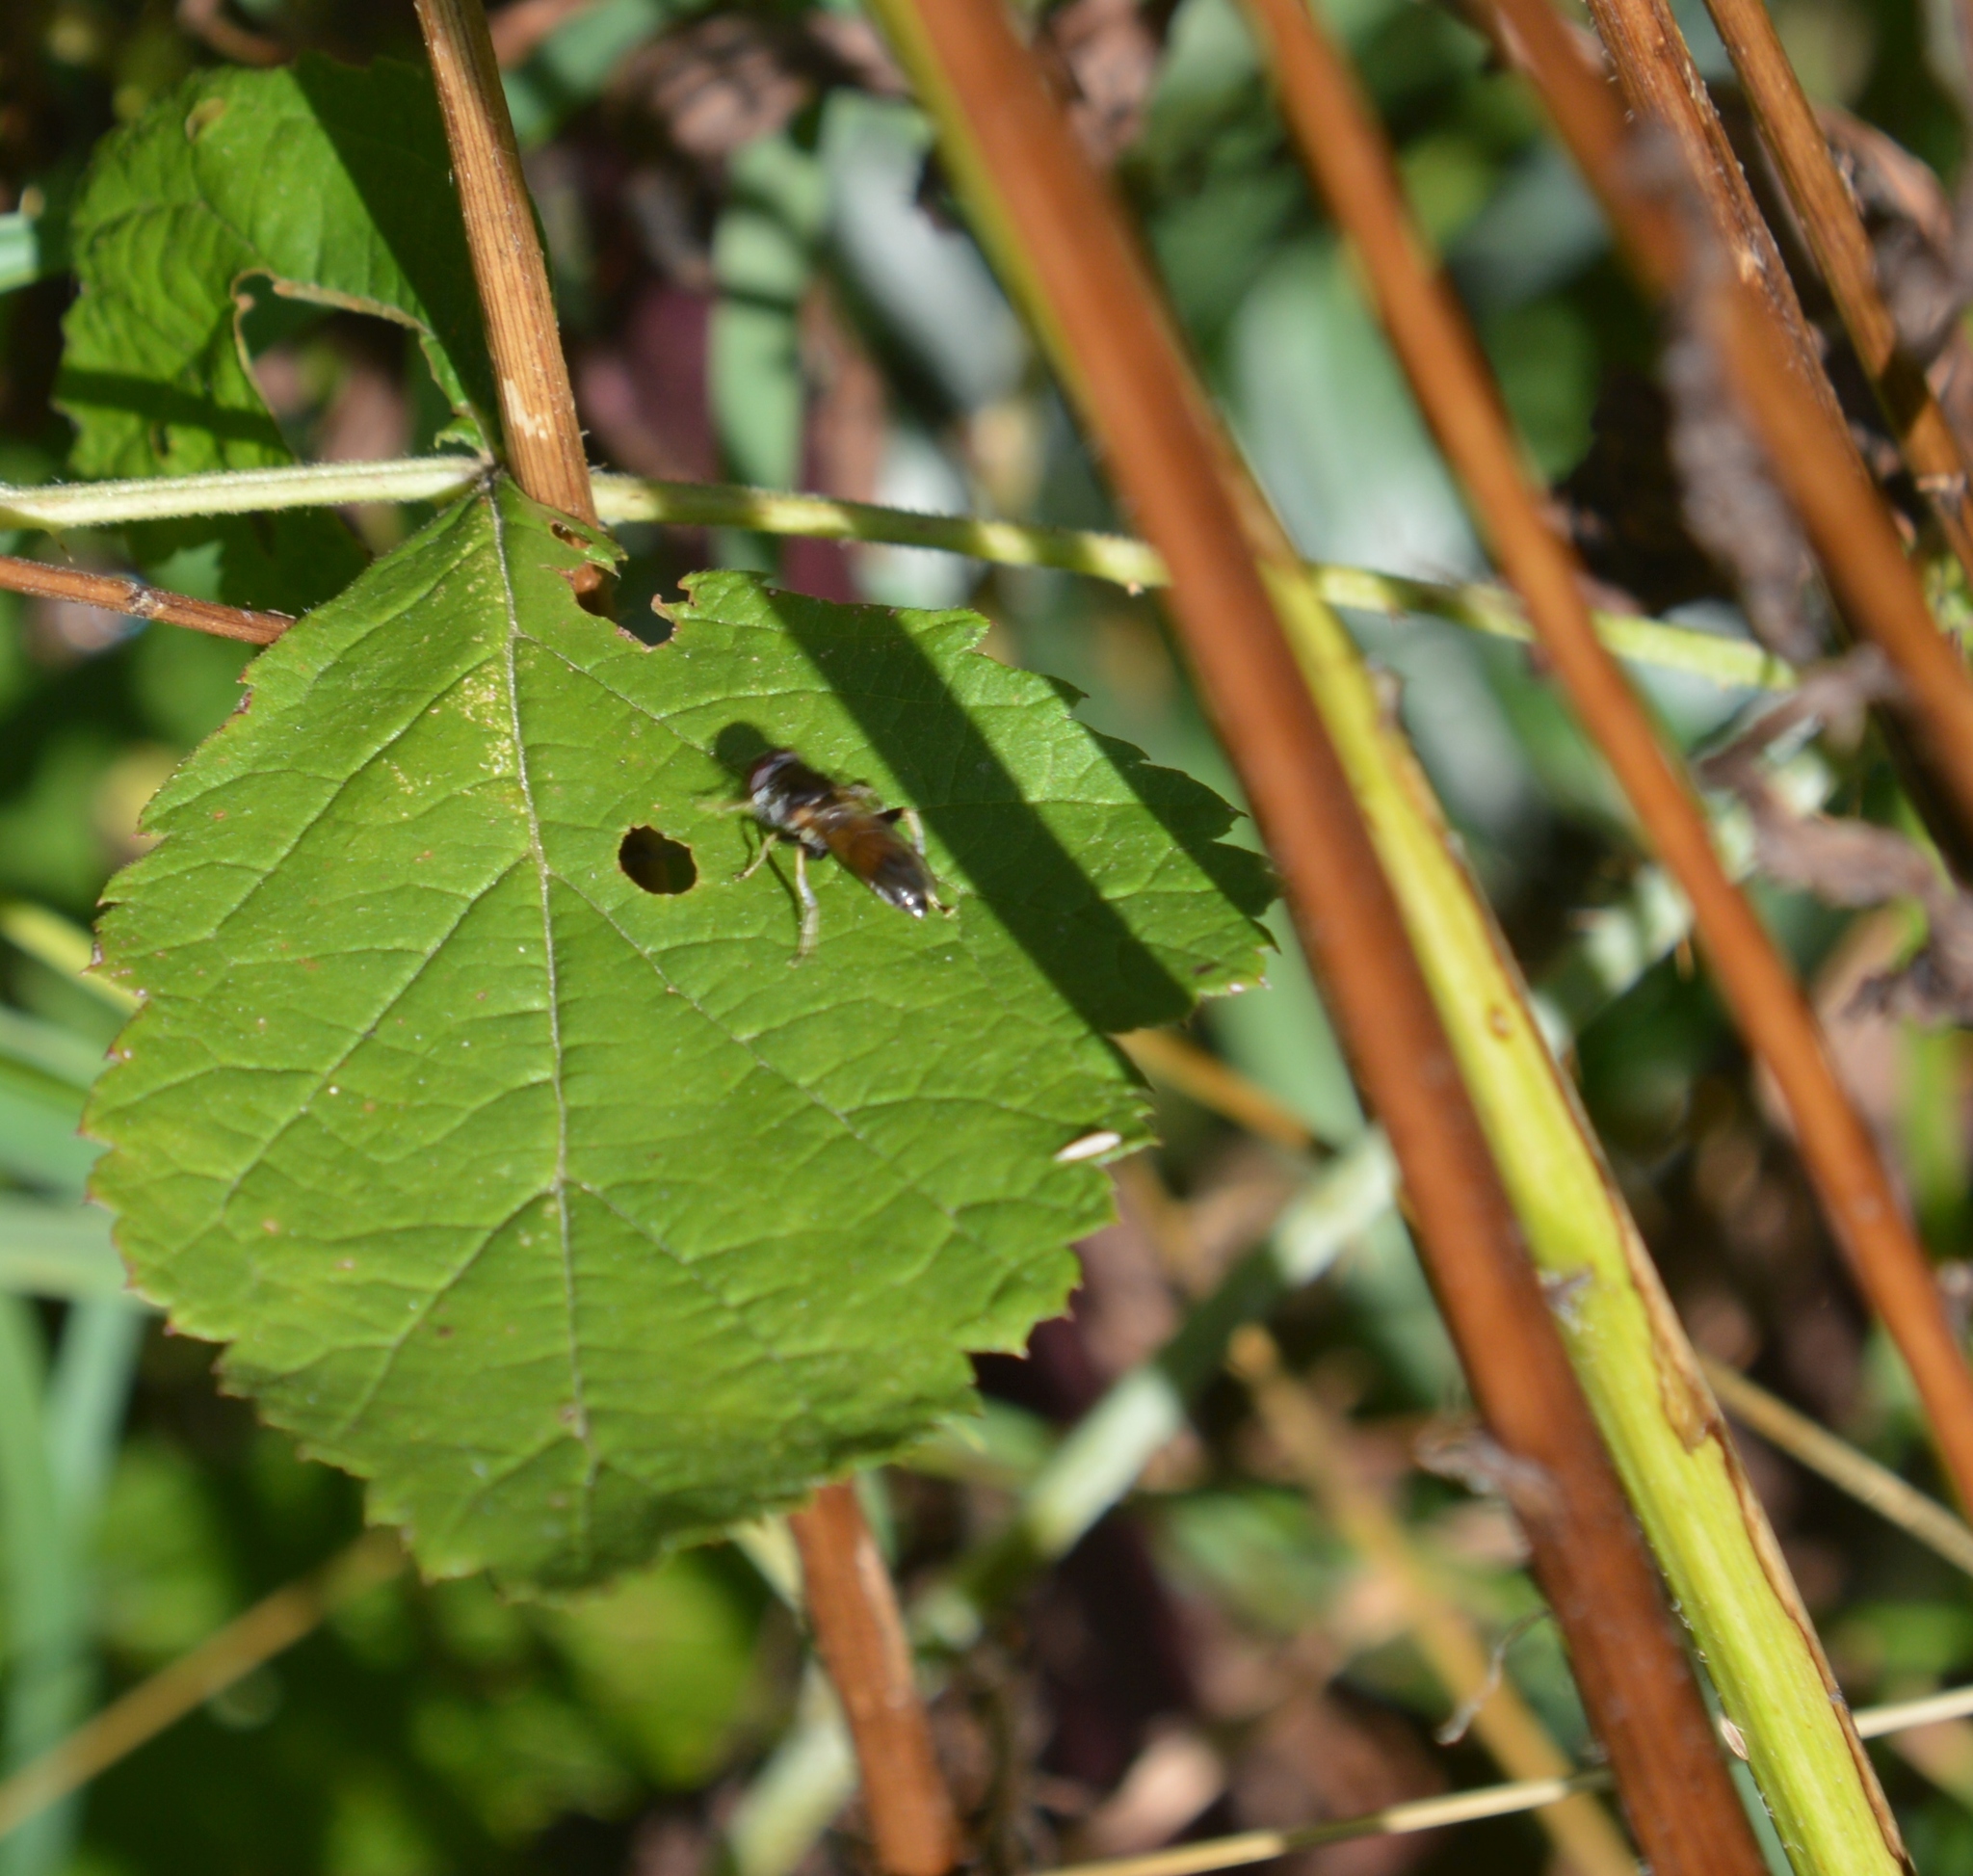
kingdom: Animalia
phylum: Arthropoda
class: Insecta
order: Diptera
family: Syrphidae
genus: Xylota
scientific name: Xylota
